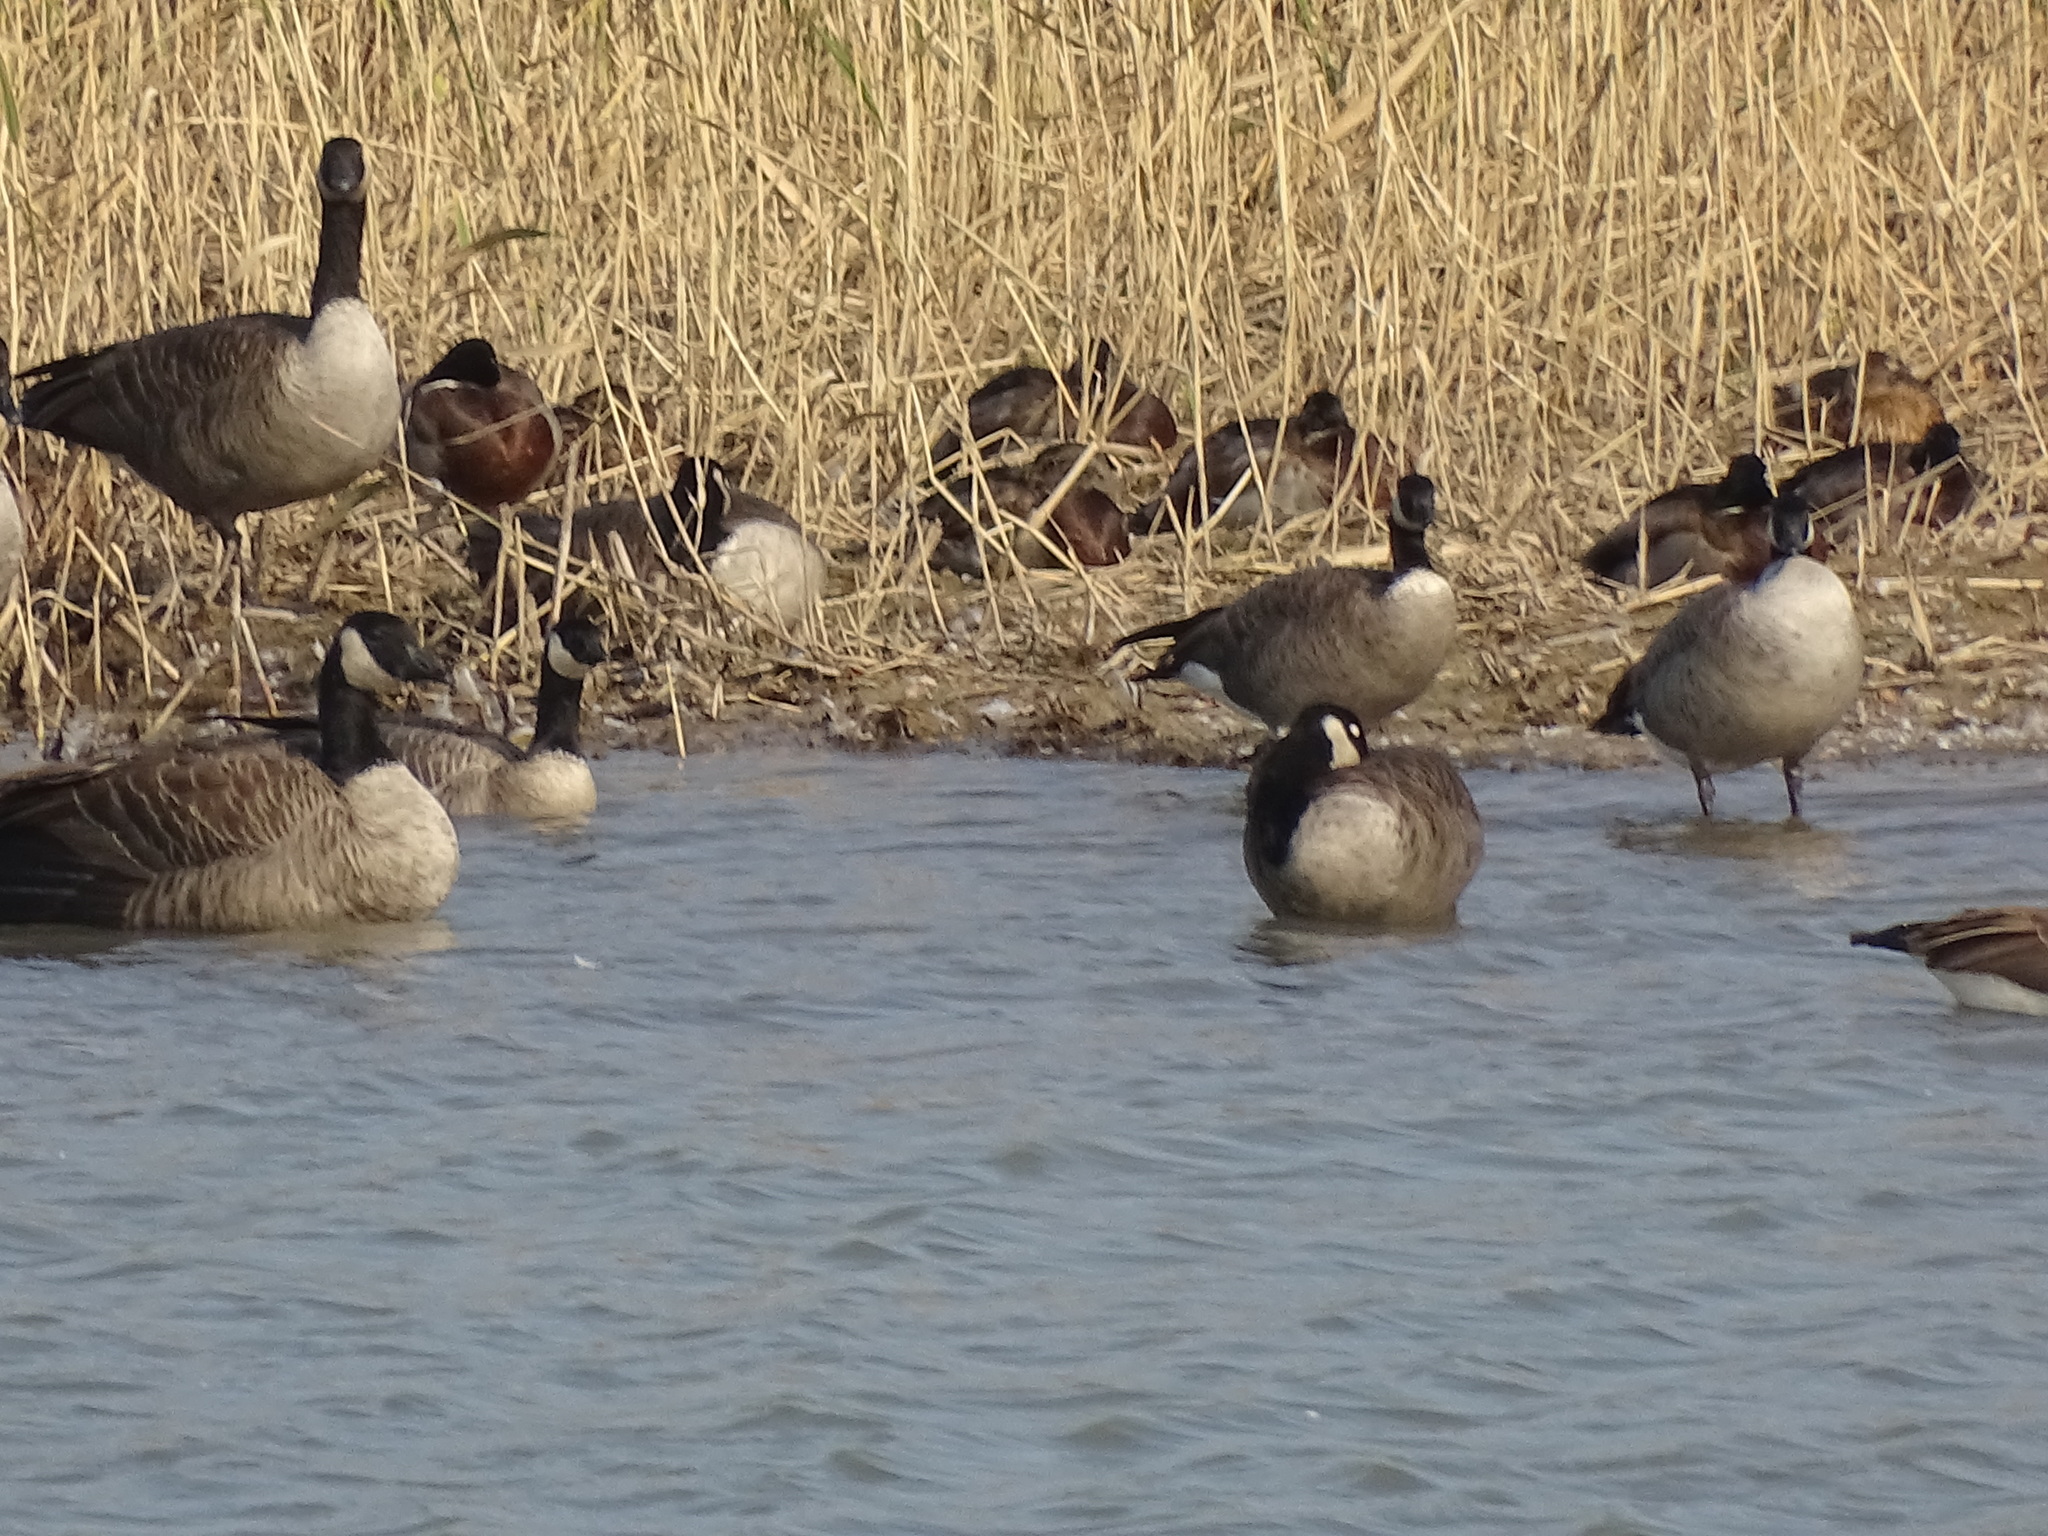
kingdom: Animalia
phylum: Chordata
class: Aves
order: Anseriformes
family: Anatidae
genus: Branta
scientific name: Branta hutchinsii
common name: Cackling goose
